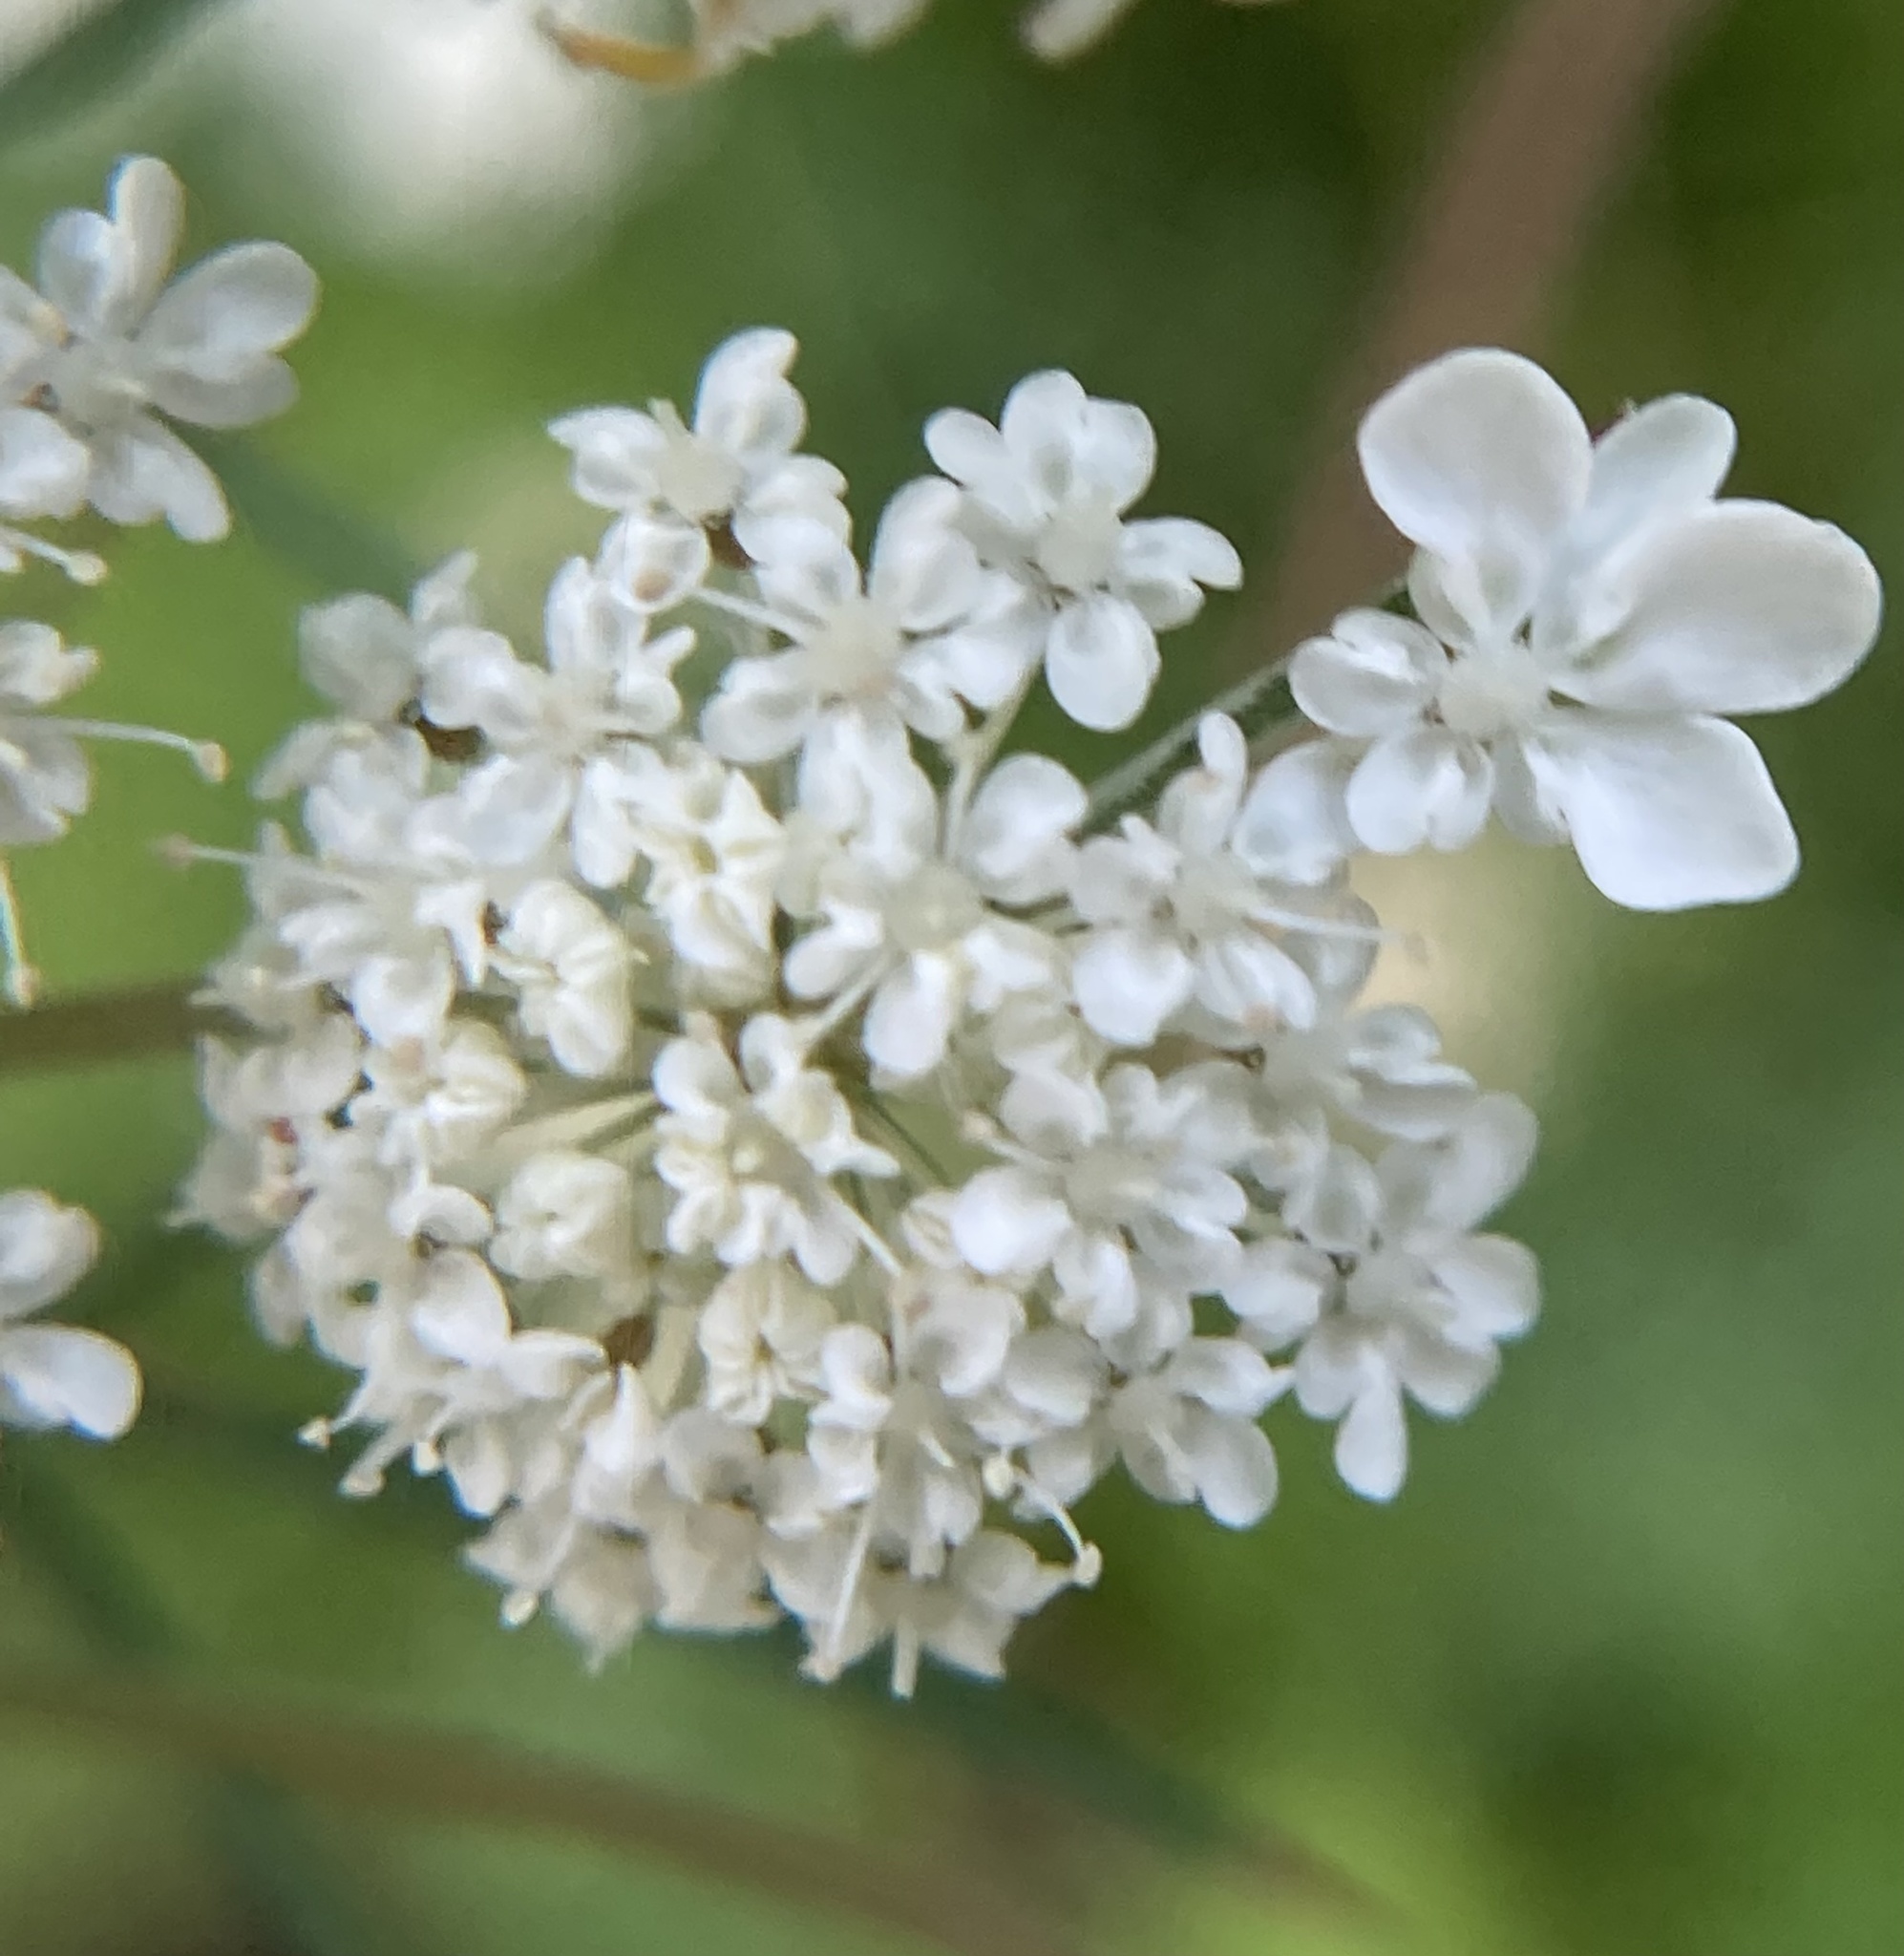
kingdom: Plantae
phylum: Tracheophyta
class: Magnoliopsida
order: Apiales
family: Apiaceae
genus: Daucus
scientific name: Daucus carota
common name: Wild carrot
